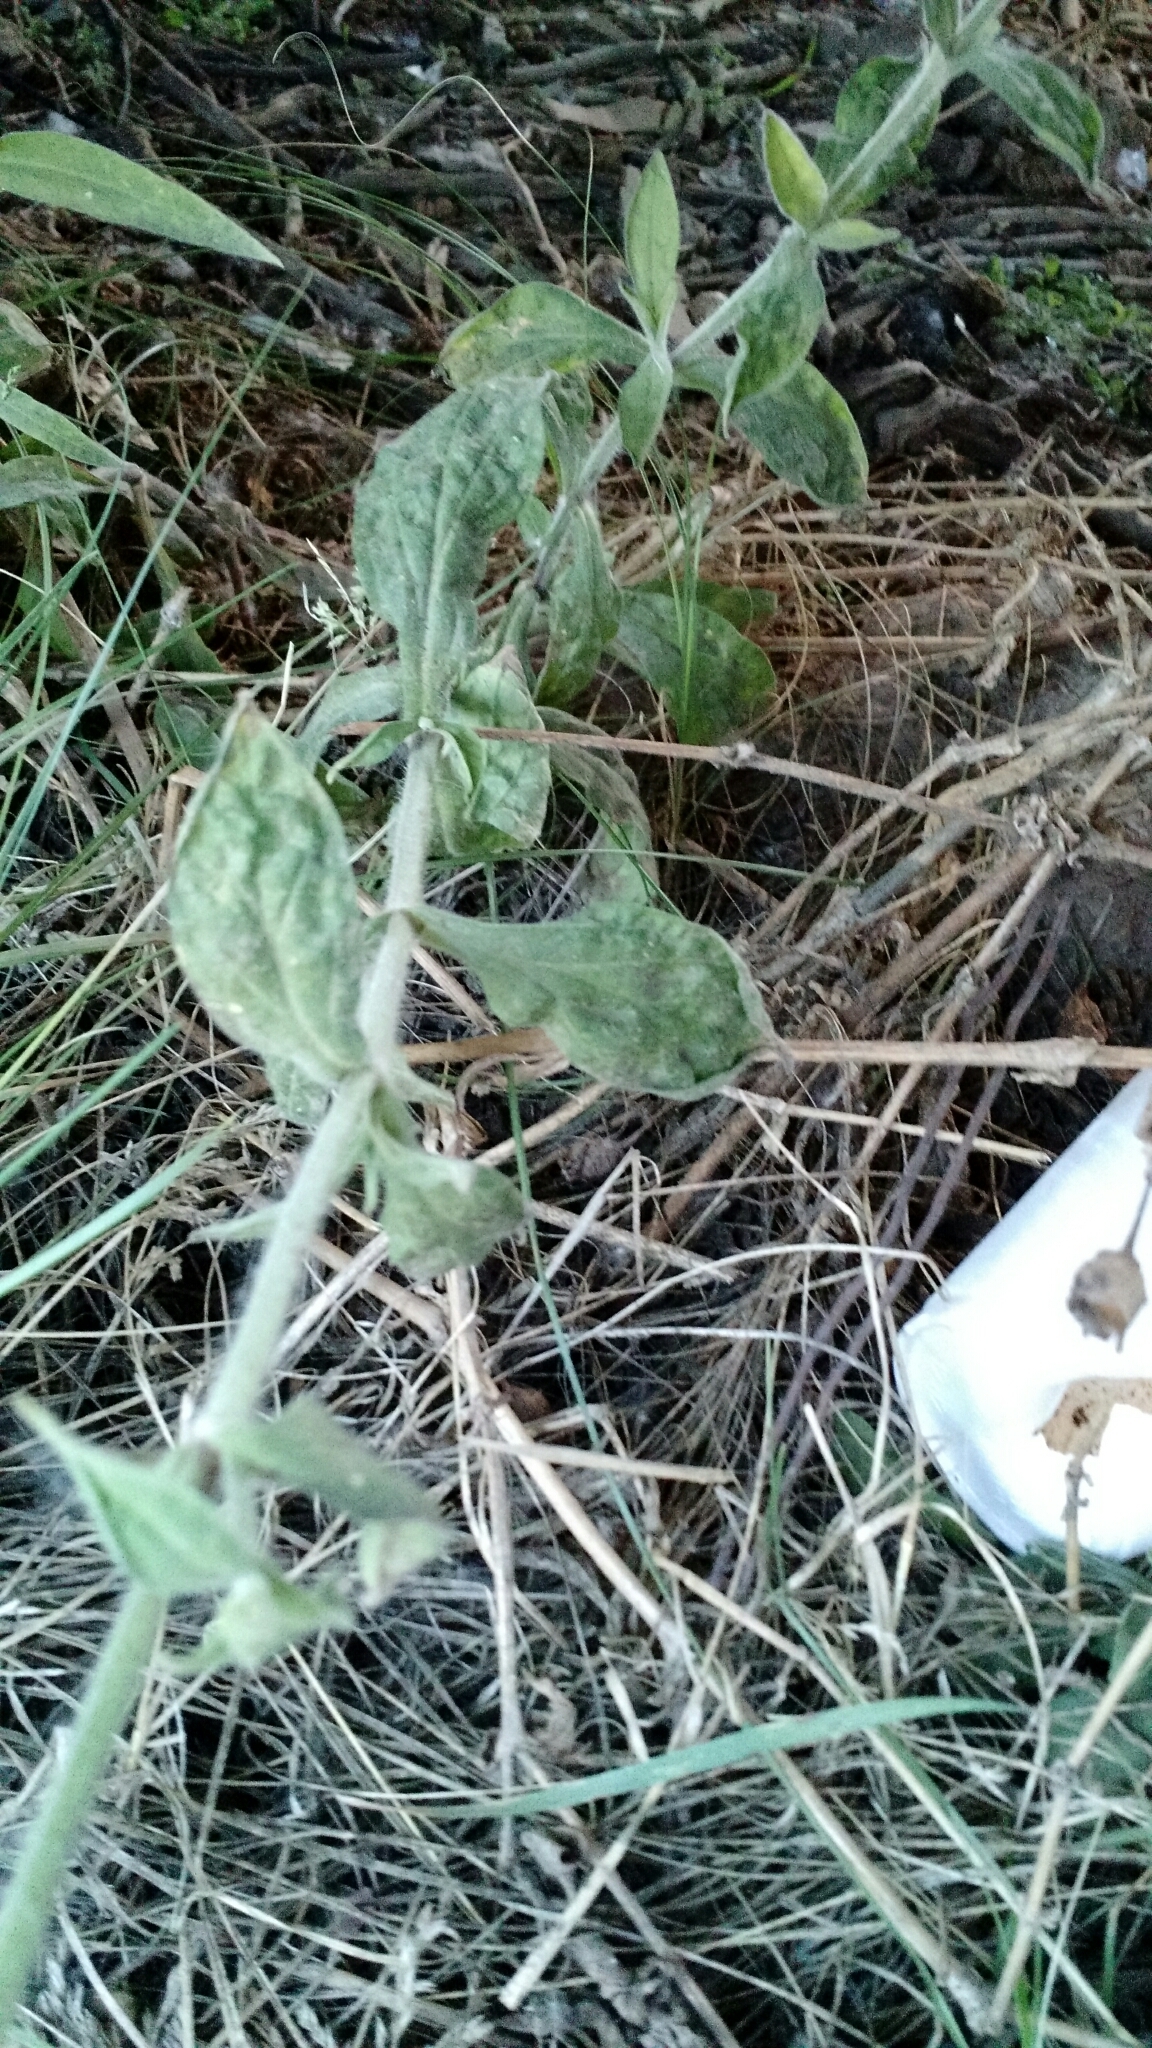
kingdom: Plantae
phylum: Tracheophyta
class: Magnoliopsida
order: Caryophyllales
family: Caryophyllaceae
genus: Silene
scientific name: Silene latifolia
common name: White campion
